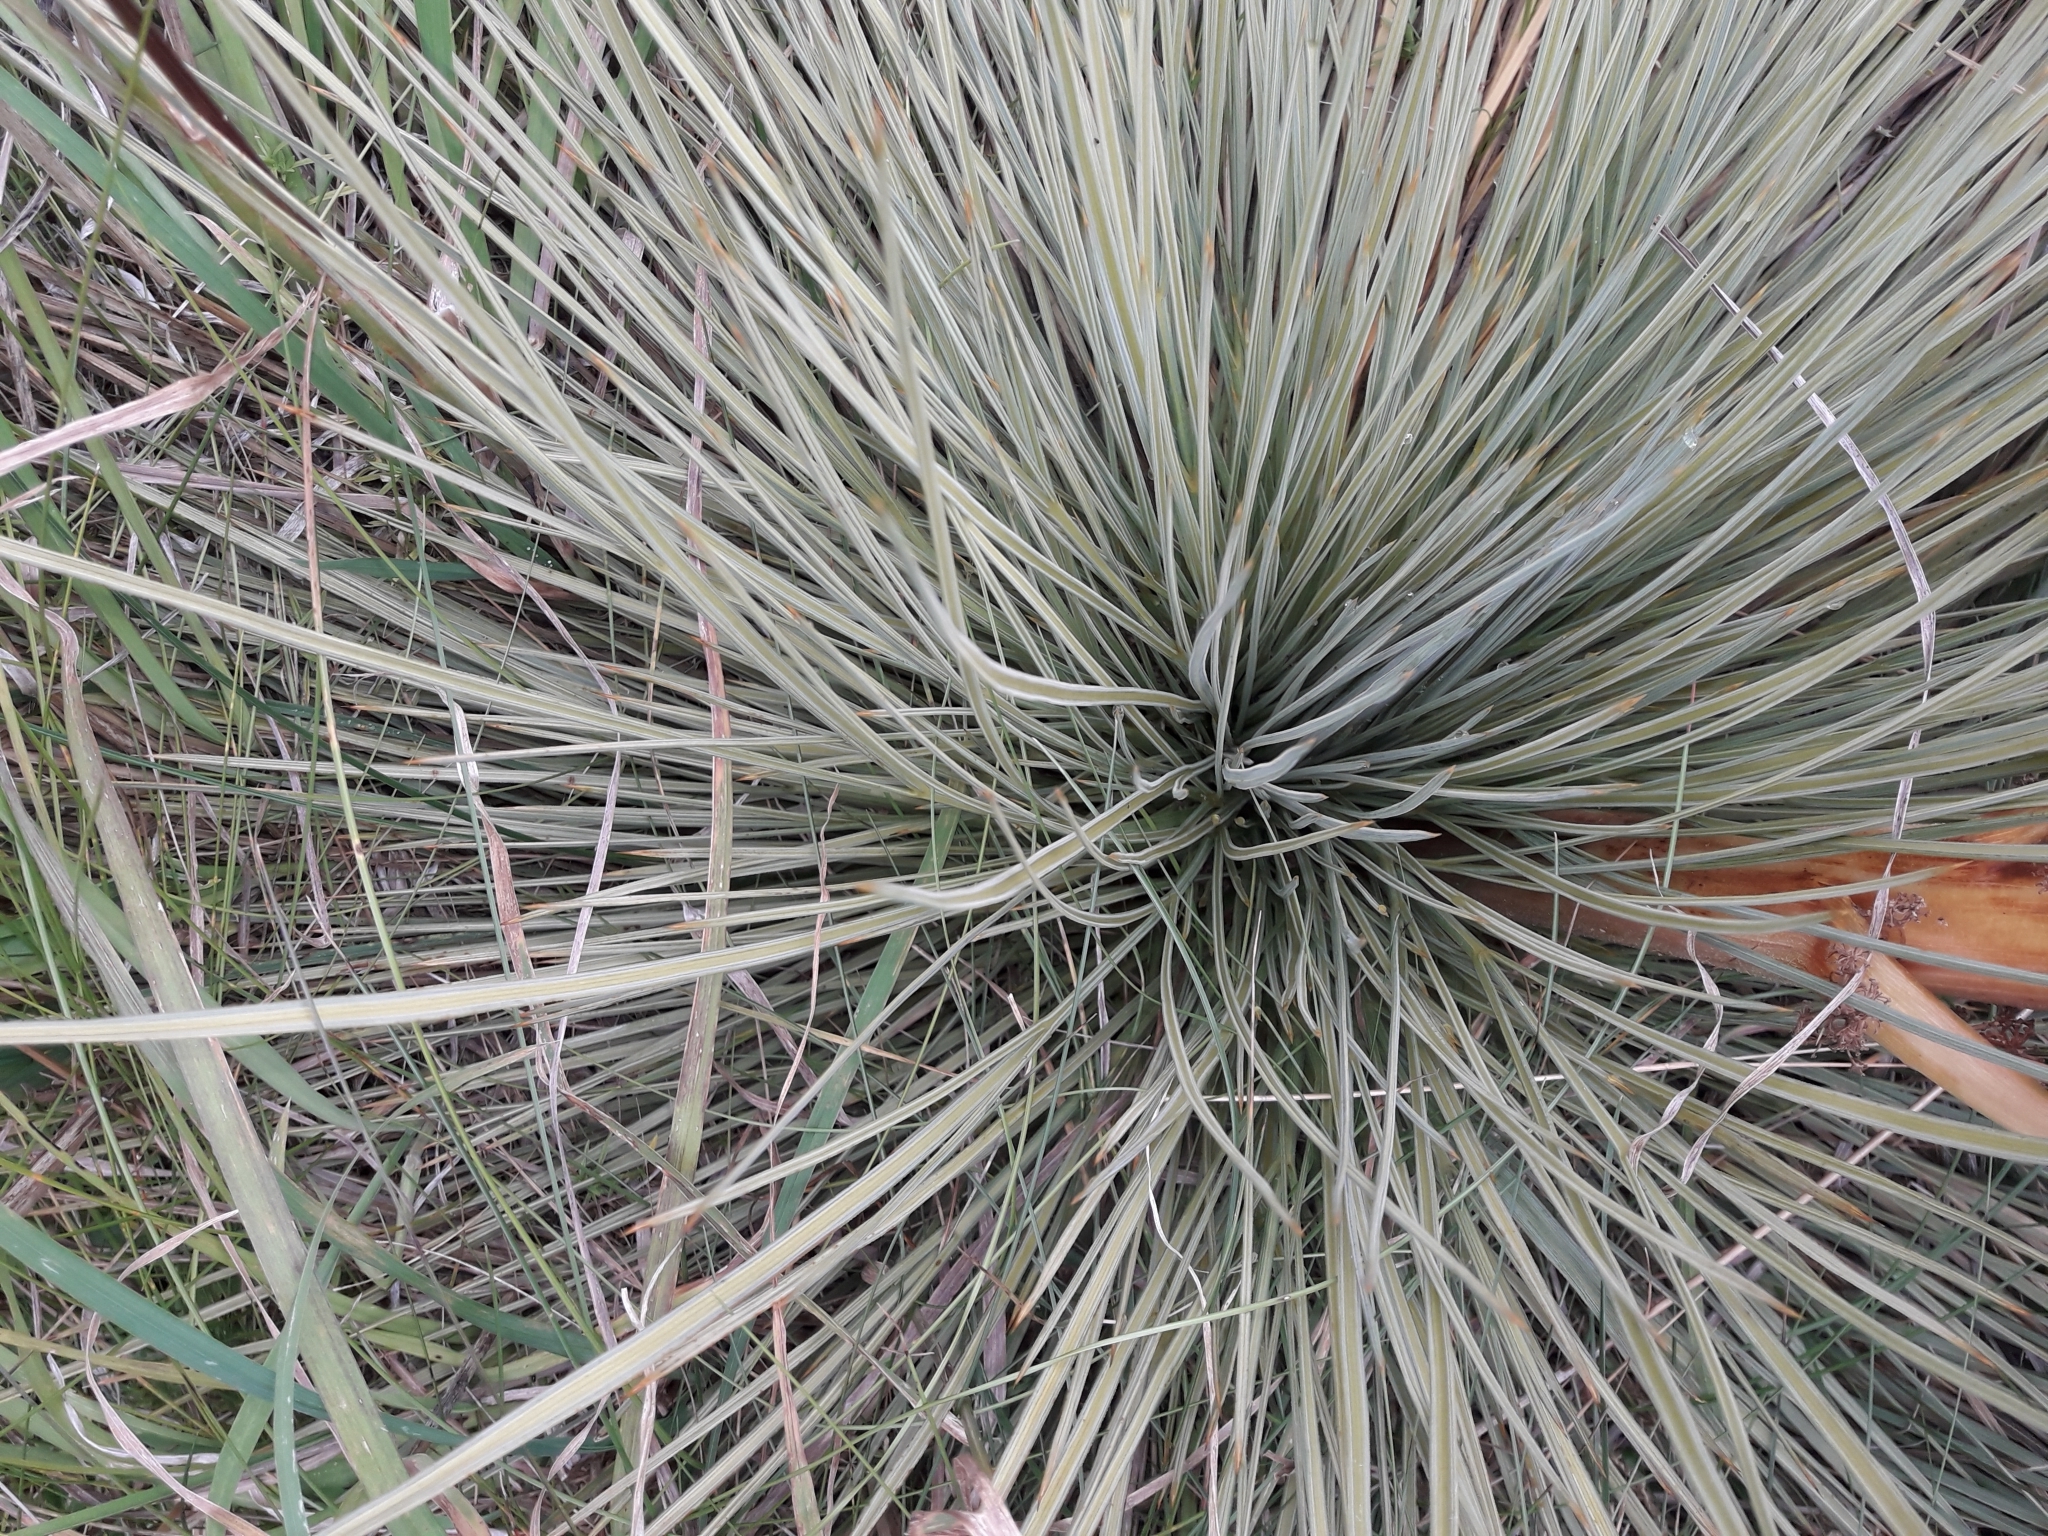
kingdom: Plantae
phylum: Tracheophyta
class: Magnoliopsida
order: Apiales
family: Apiaceae
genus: Aciphylla
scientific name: Aciphylla subflabellata
